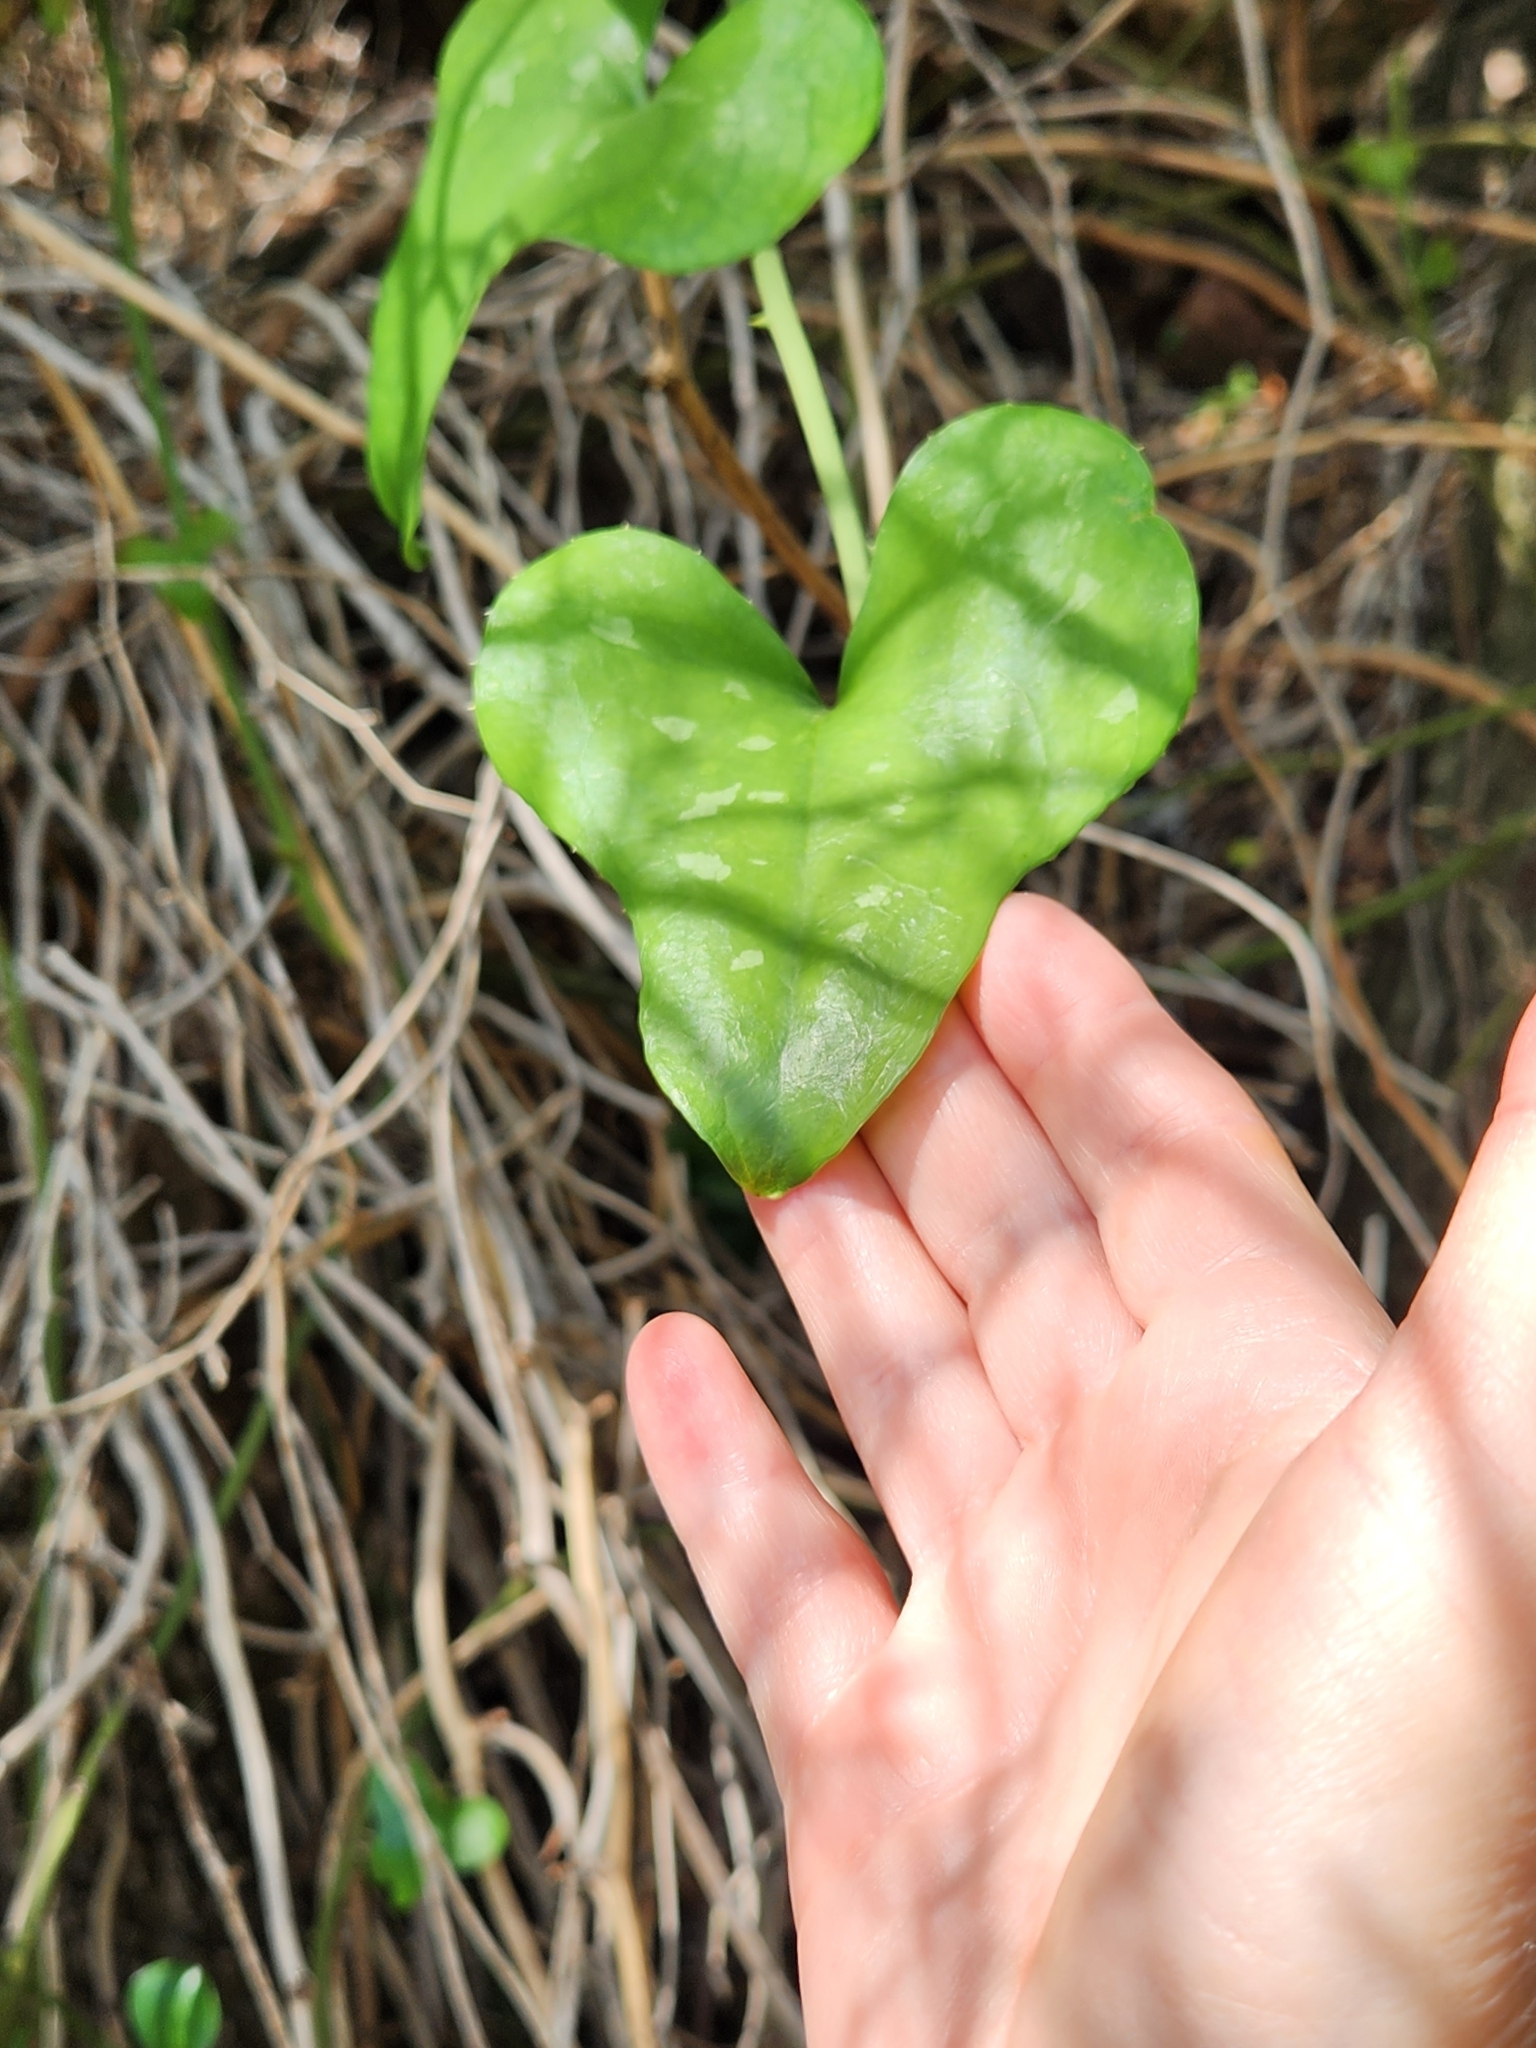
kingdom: Plantae
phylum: Tracheophyta
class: Liliopsida
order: Liliales
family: Smilacaceae
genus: Smilax
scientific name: Smilax bona-nox
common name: Catbrier
